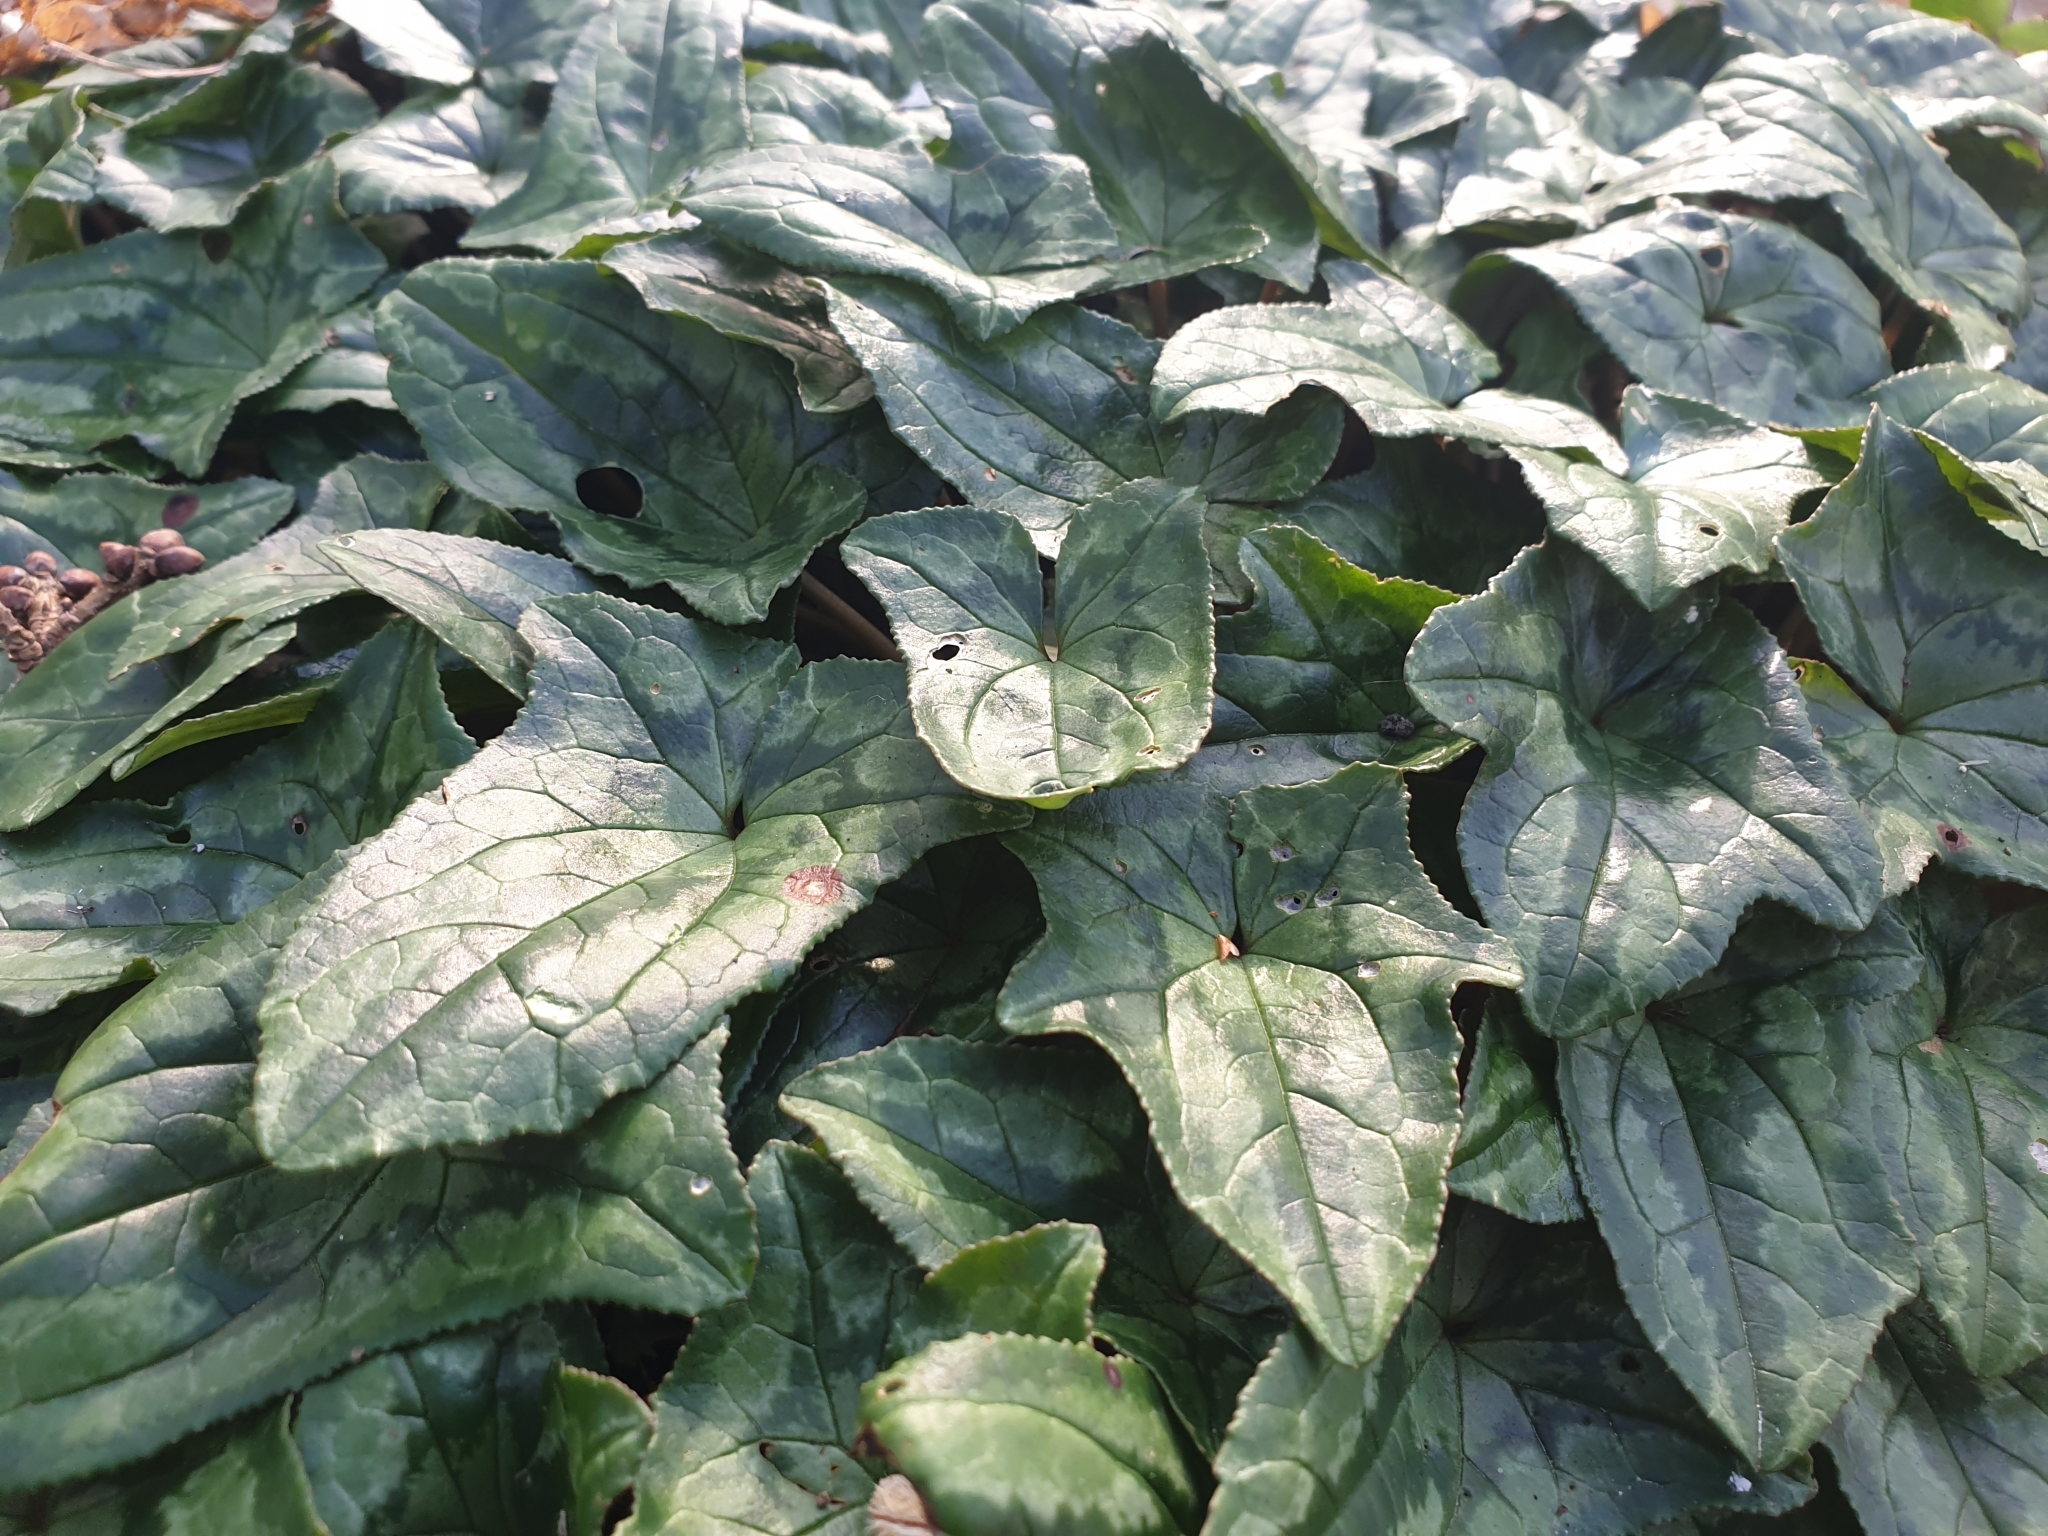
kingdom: Plantae
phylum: Tracheophyta
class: Magnoliopsida
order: Ericales
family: Primulaceae
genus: Cyclamen
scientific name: Cyclamen hederifolium
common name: Sowbread
